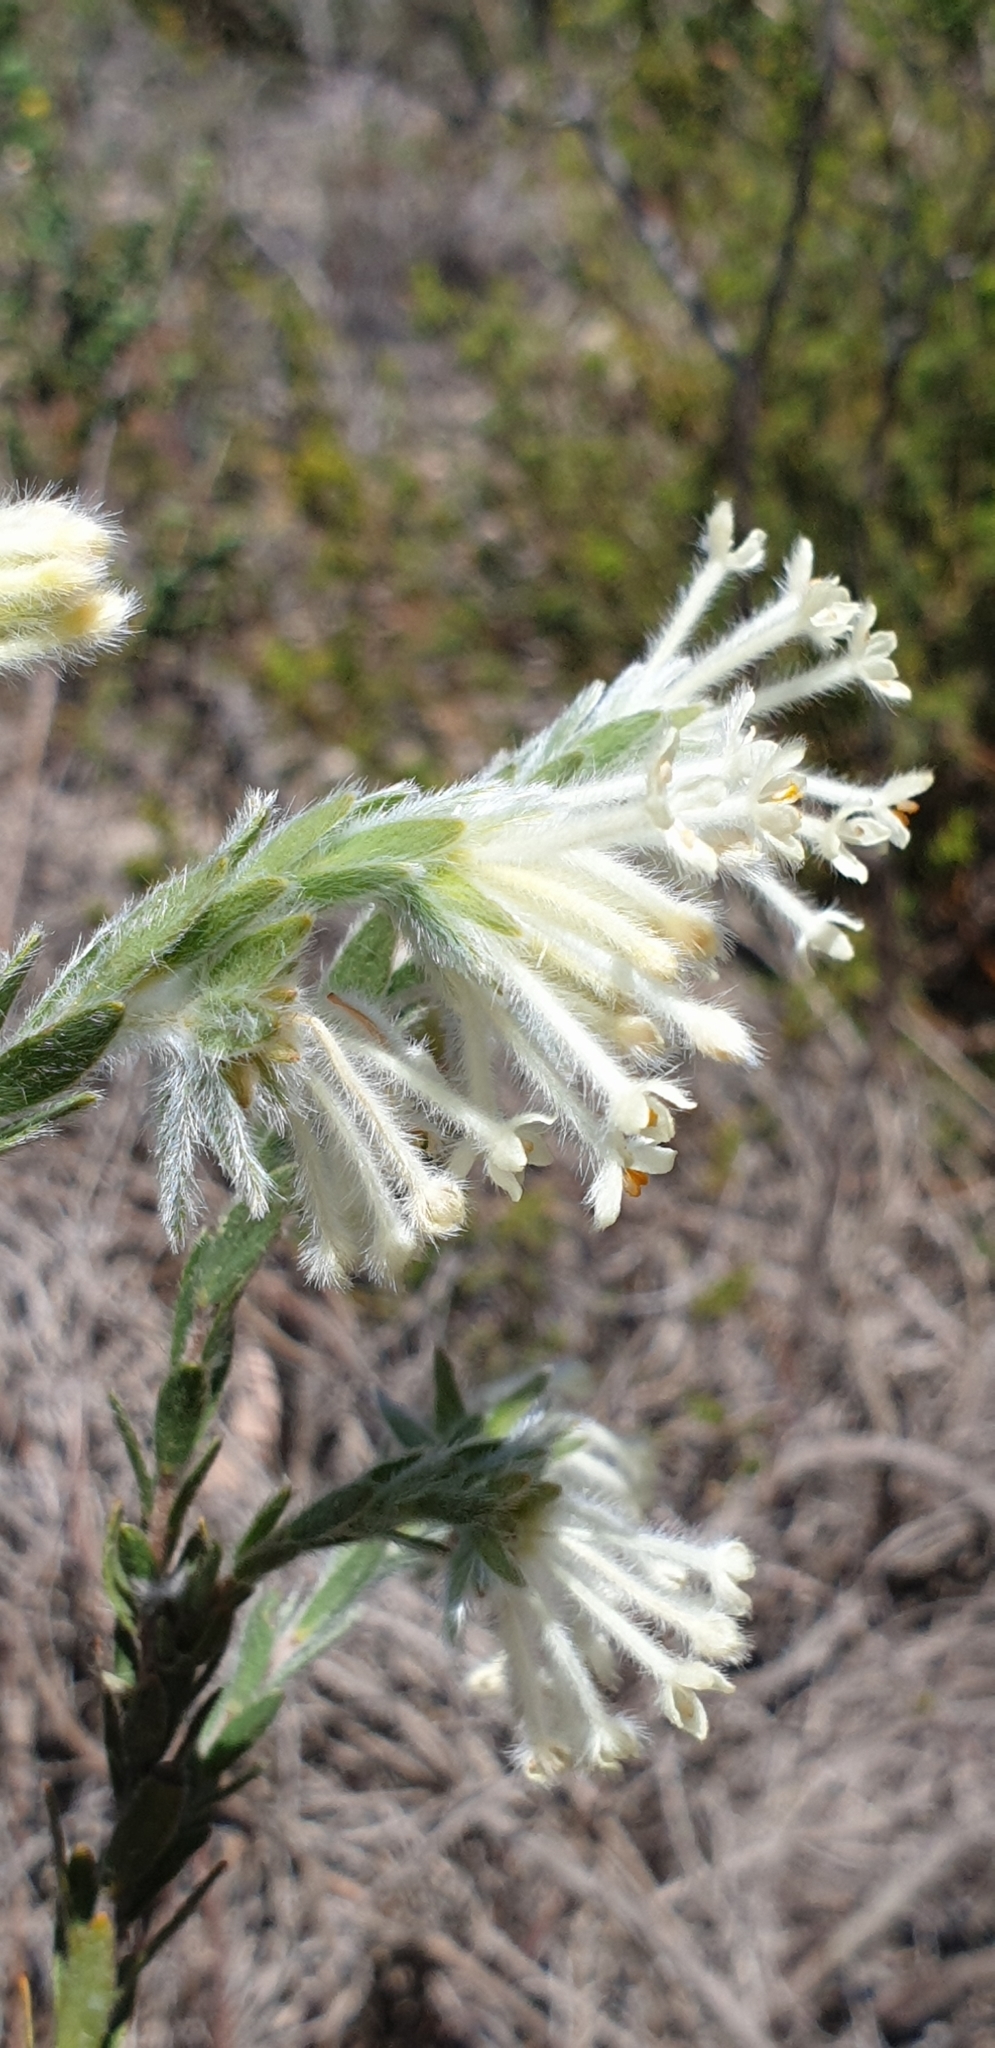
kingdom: Plantae
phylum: Tracheophyta
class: Magnoliopsida
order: Malvales
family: Thymelaeaceae
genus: Pimelea
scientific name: Pimelea octophylla
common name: Woolly riceflower
